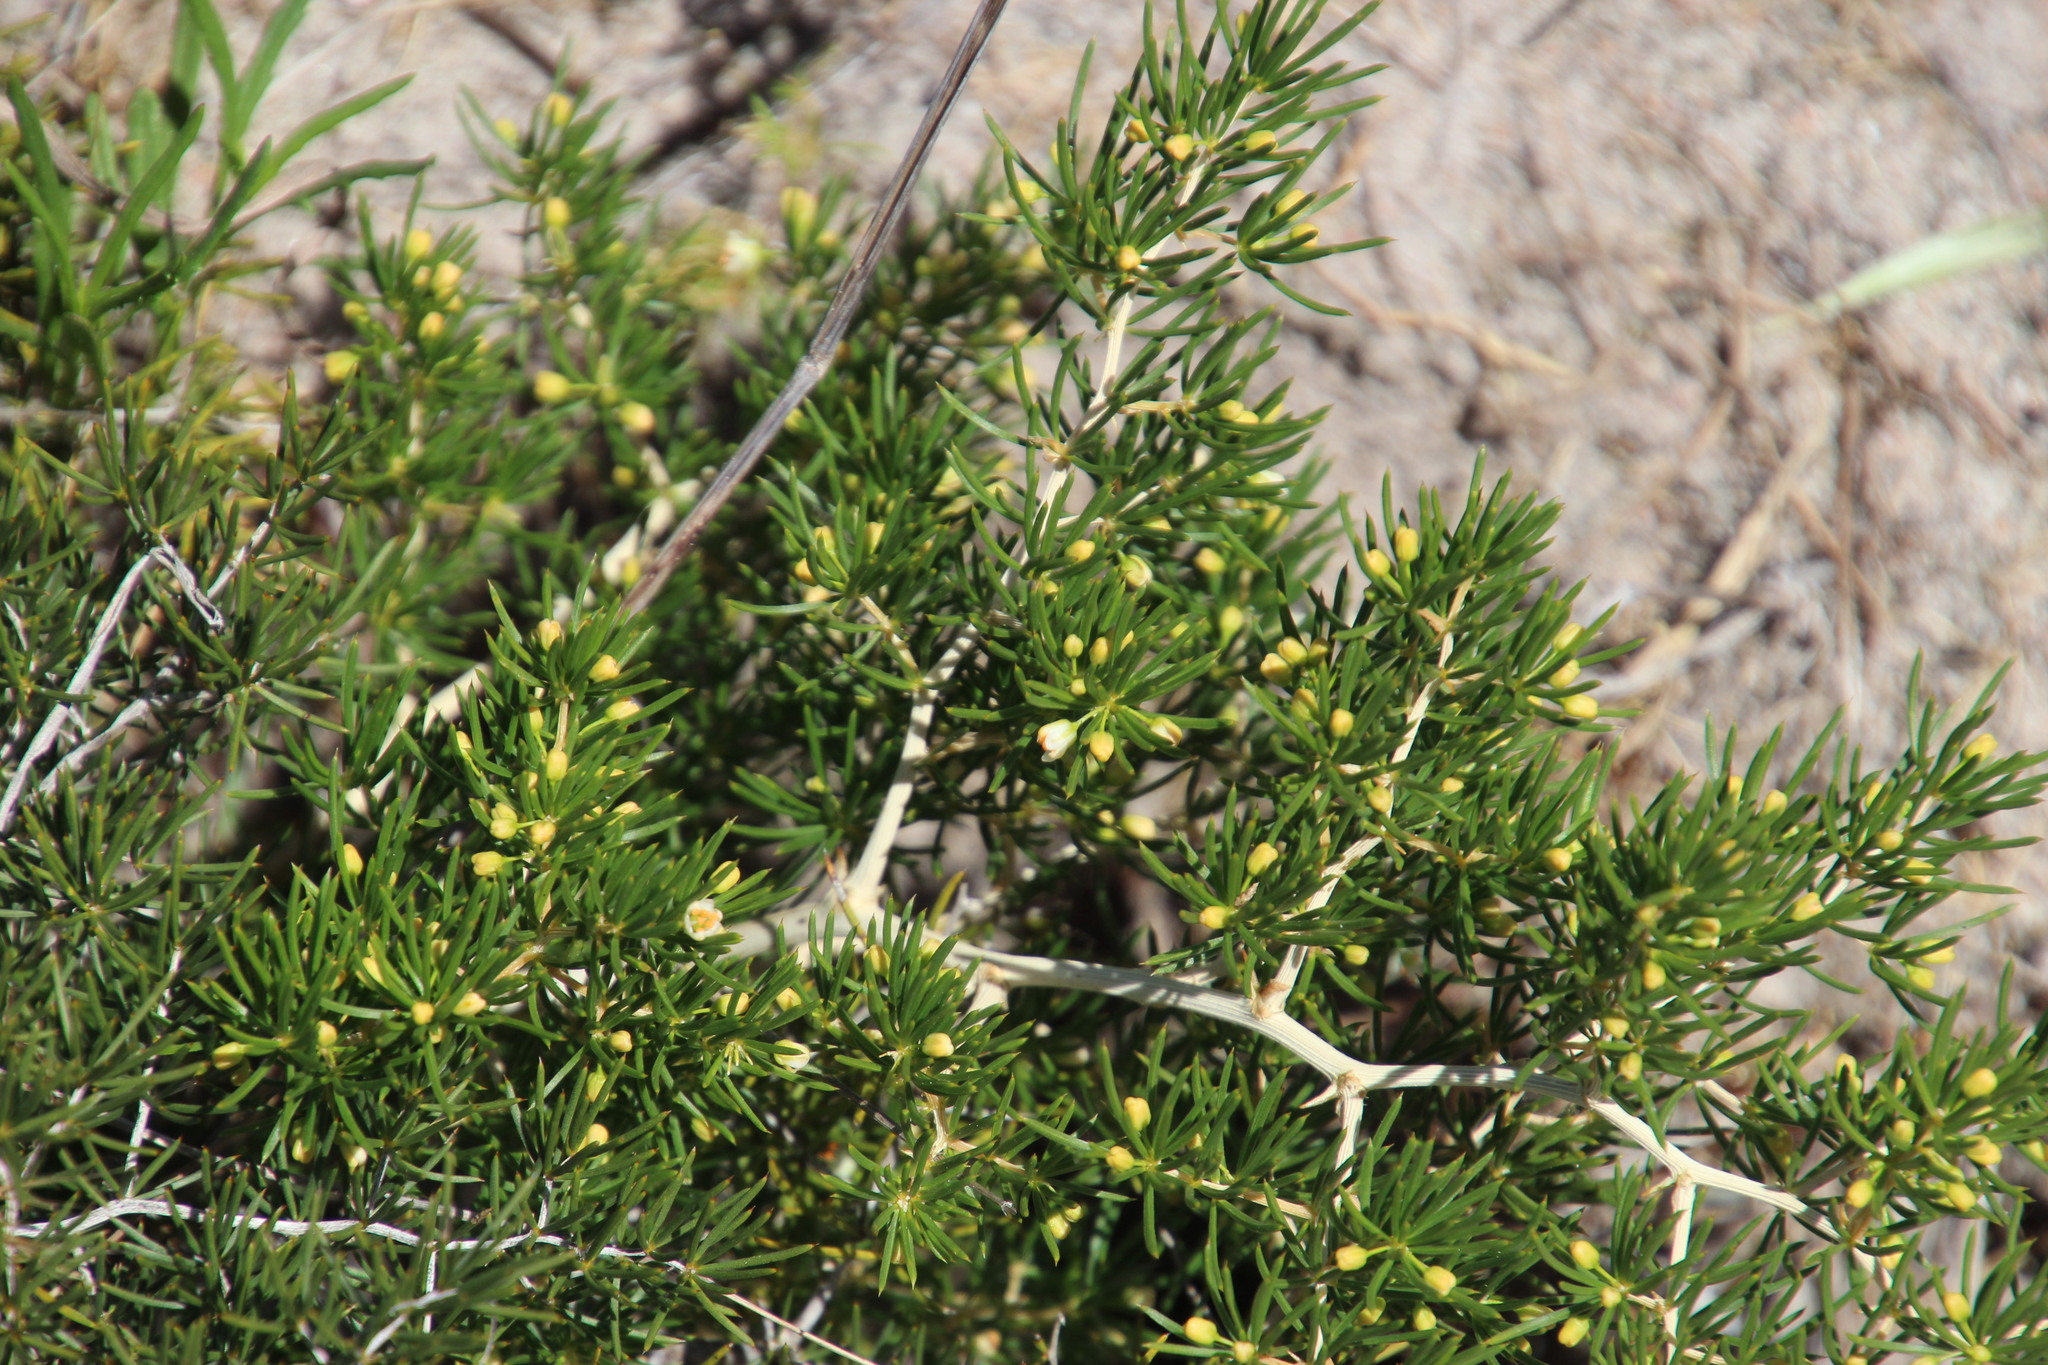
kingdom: Plantae
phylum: Tracheophyta
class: Liliopsida
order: Asparagales
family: Asparagaceae
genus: Asparagus
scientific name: Asparagus lignosus
